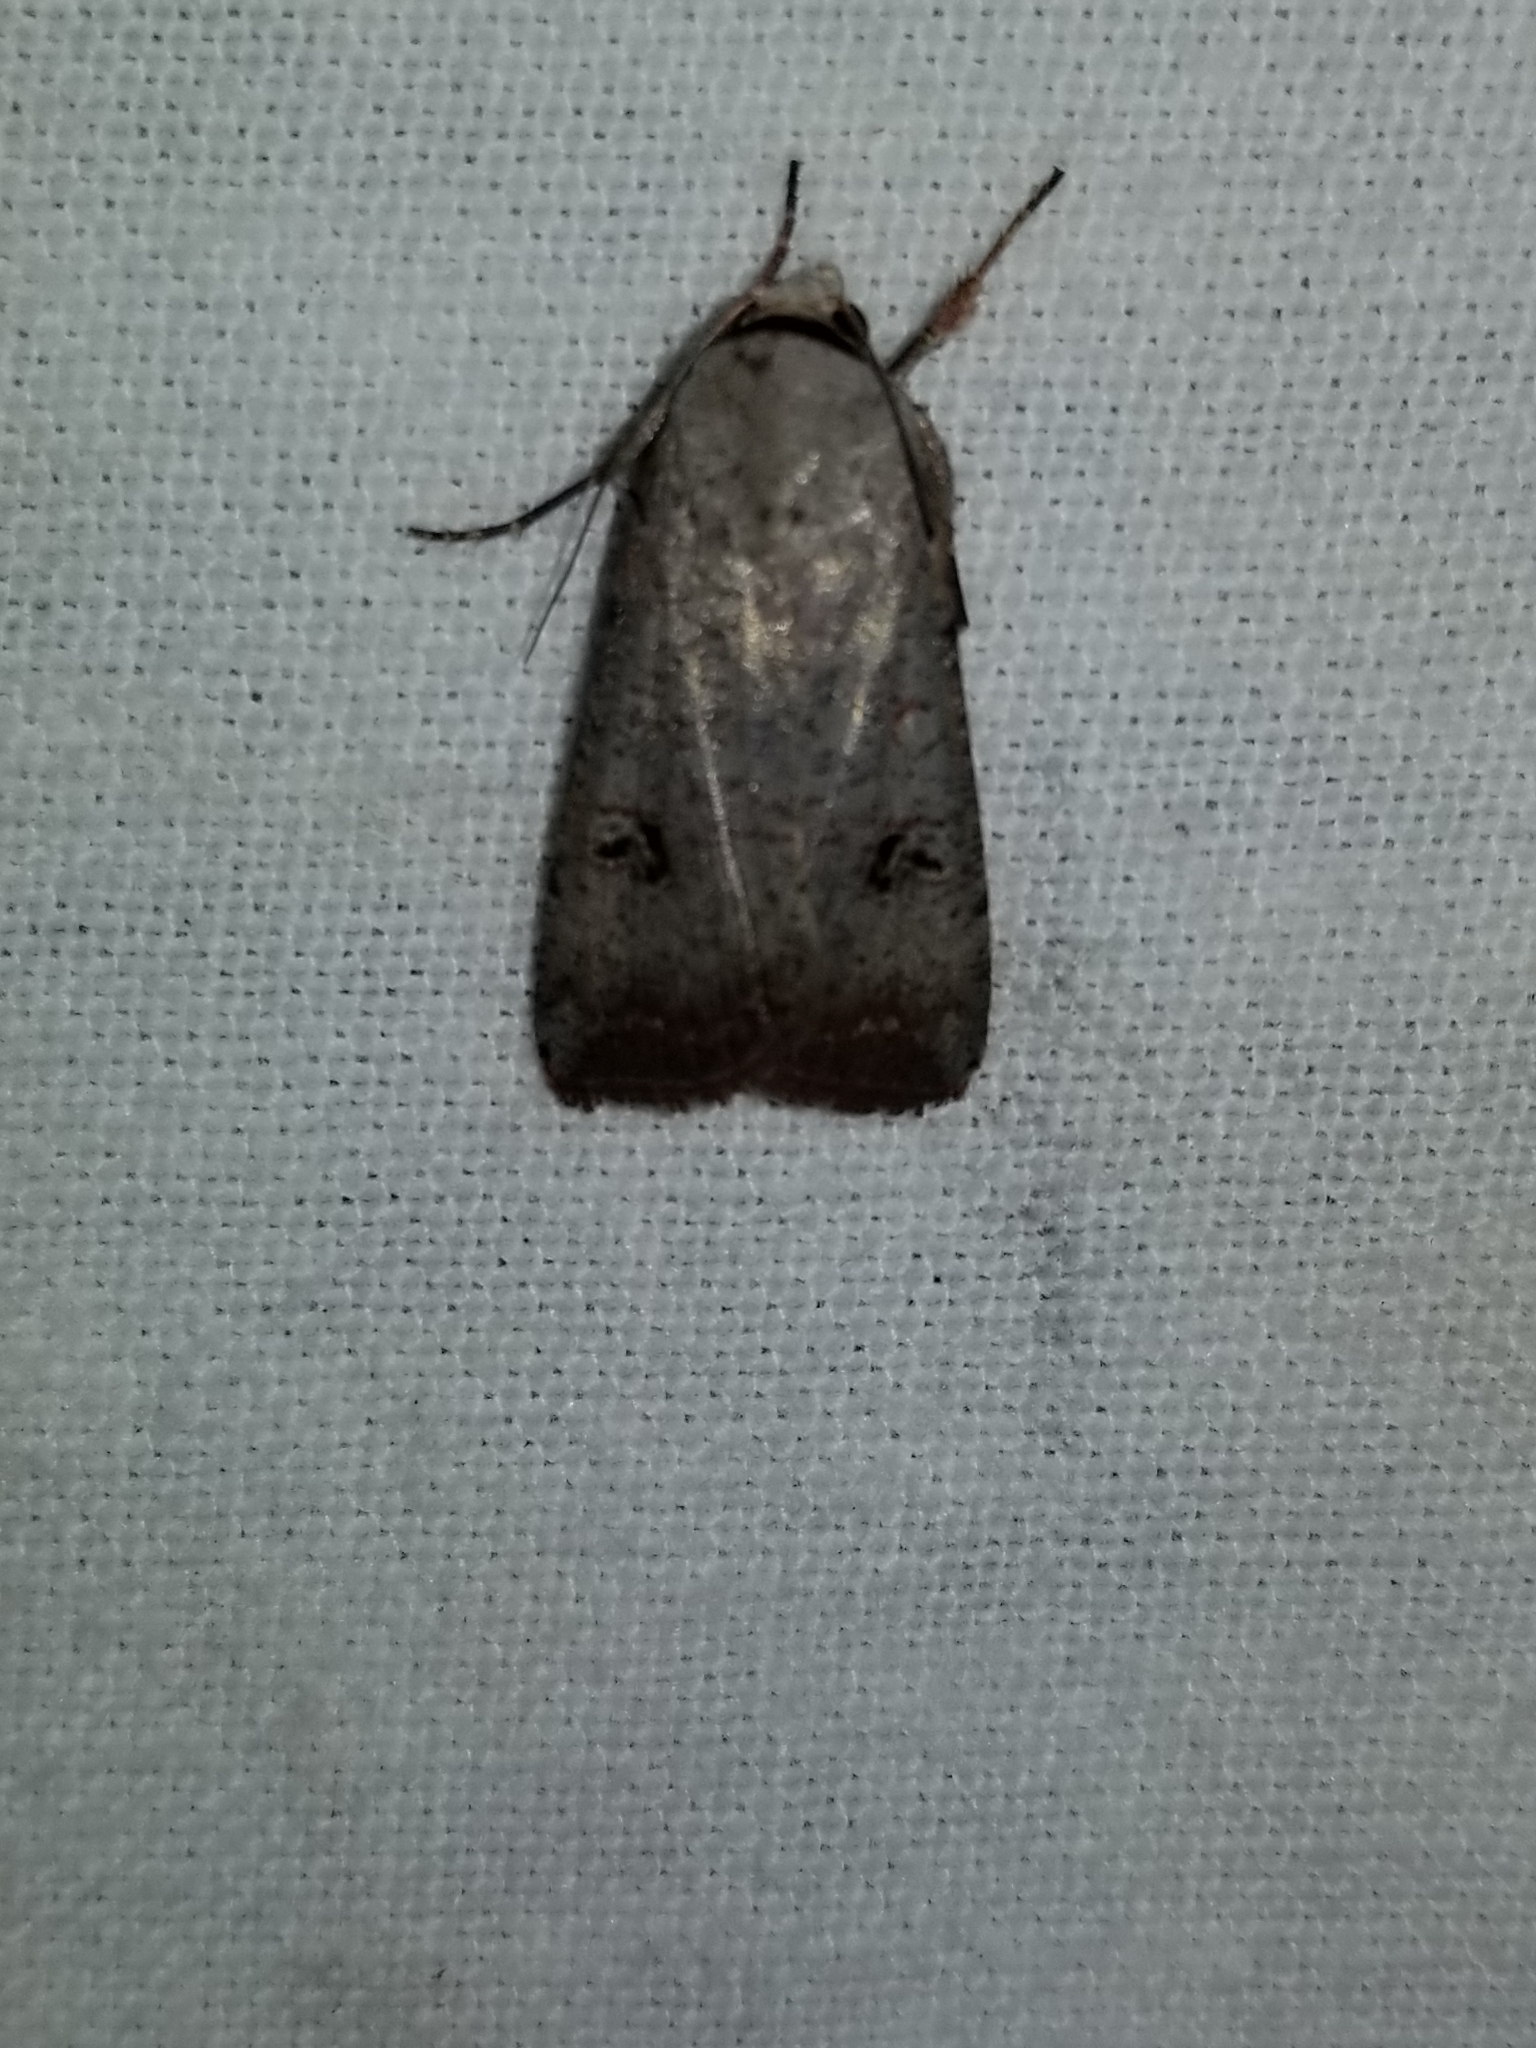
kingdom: Animalia
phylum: Arthropoda
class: Insecta
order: Lepidoptera
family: Noctuidae
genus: Anicla
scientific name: Anicla infecta
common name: Green cutworm
